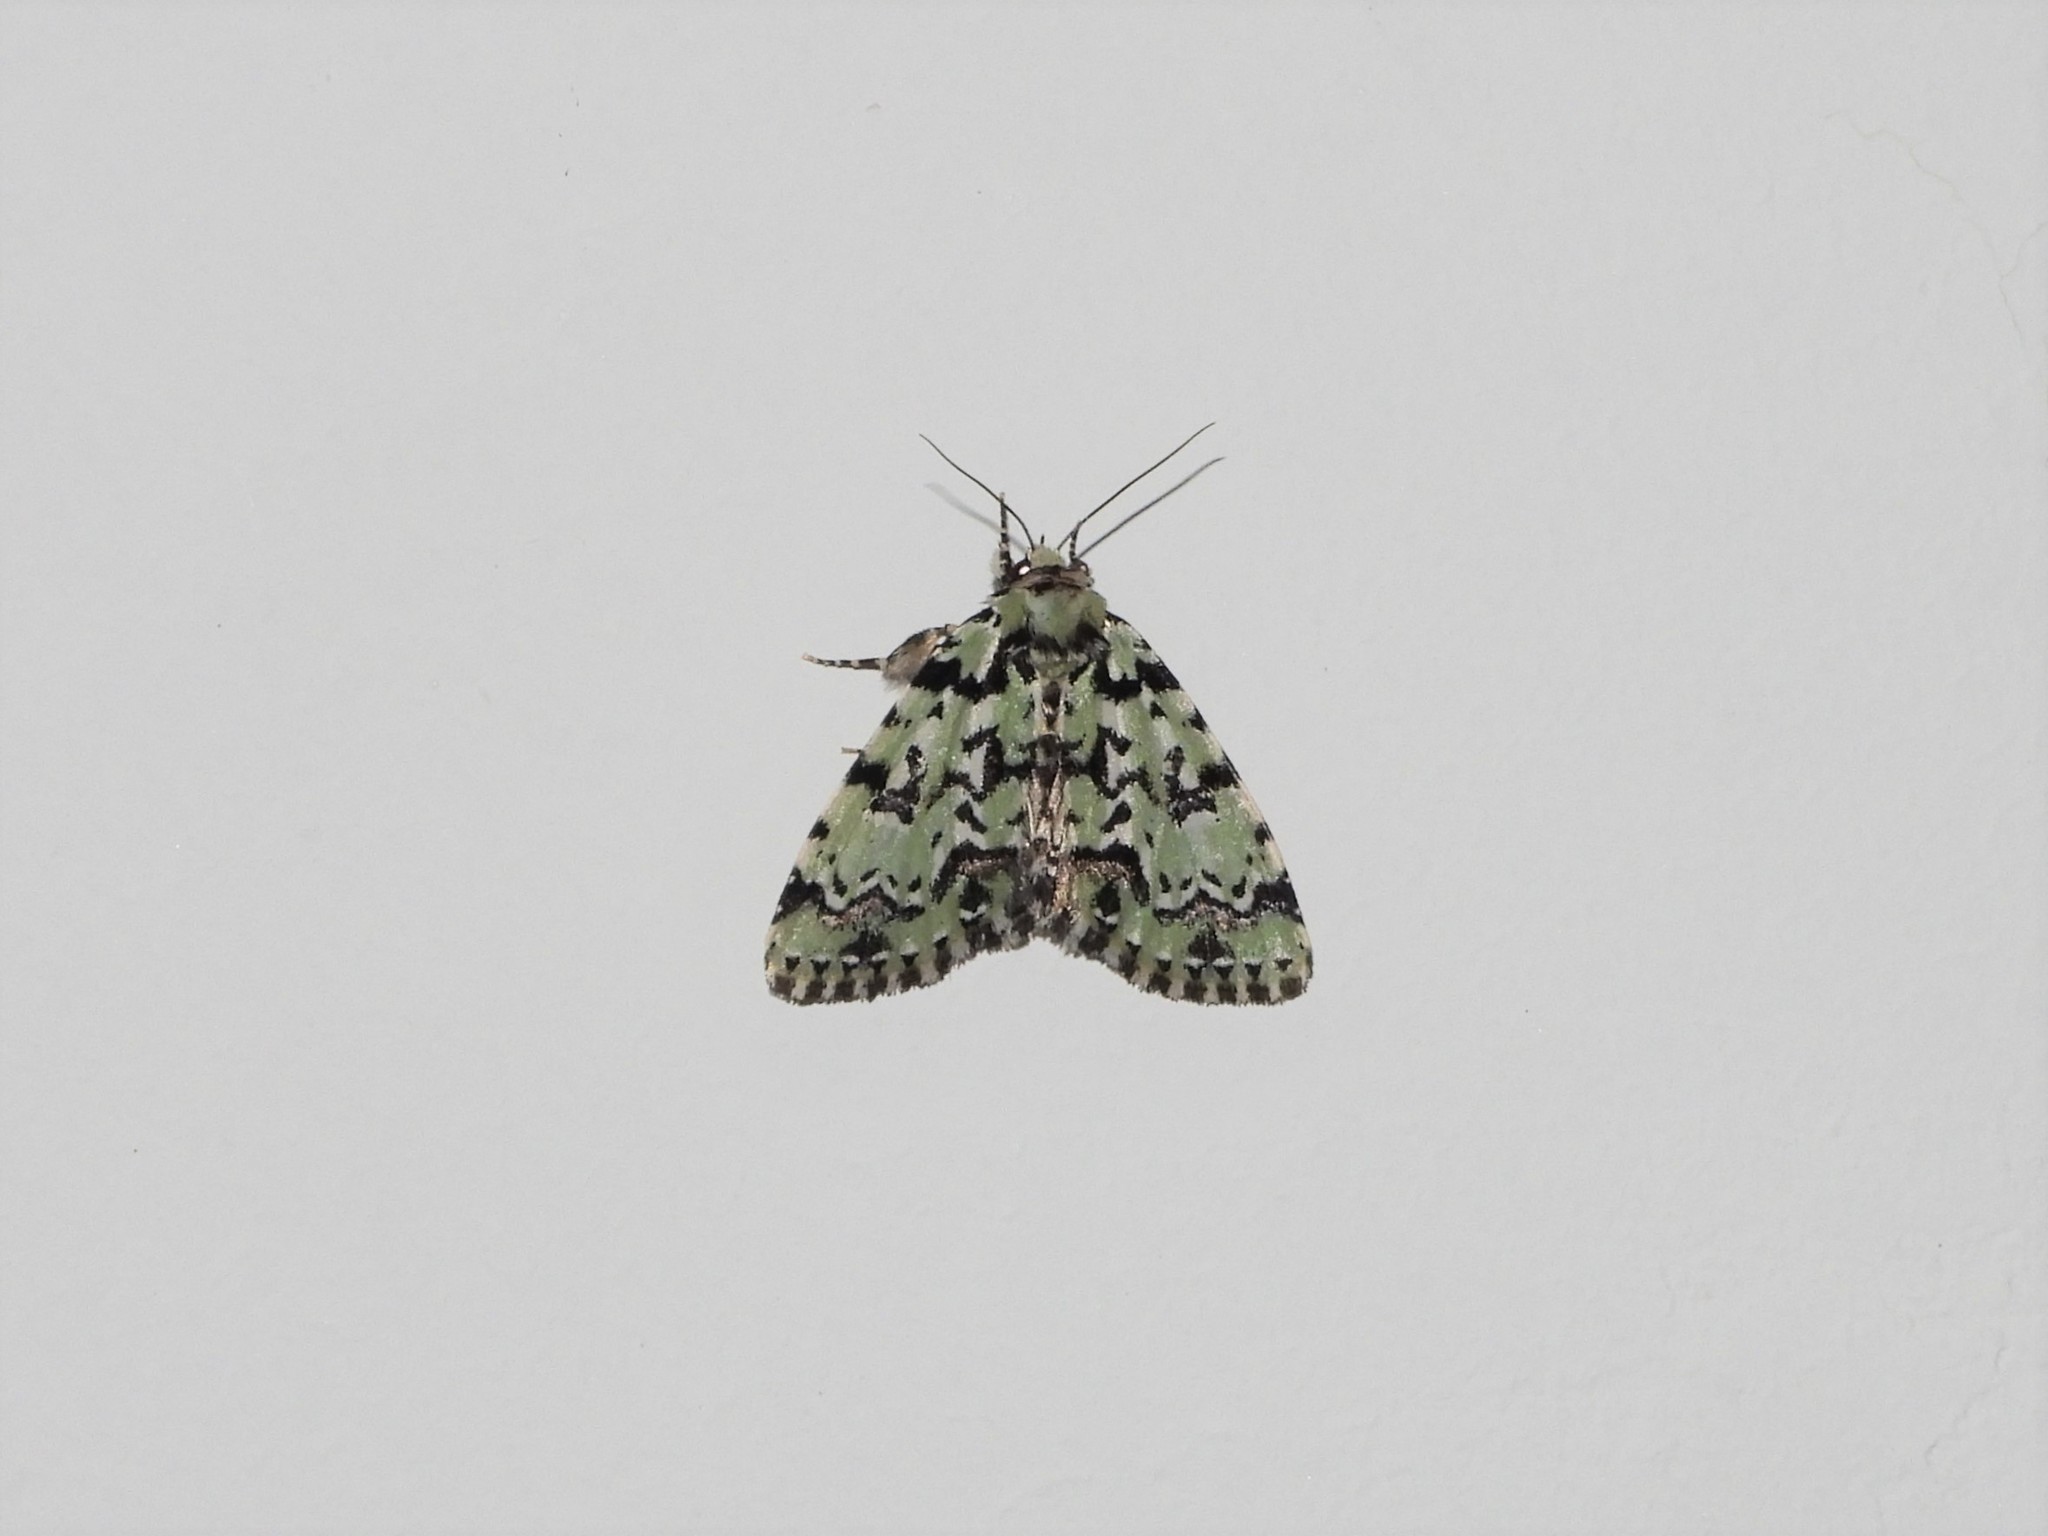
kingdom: Animalia
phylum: Arthropoda
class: Insecta
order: Lepidoptera
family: Noctuidae
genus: Moma
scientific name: Moma alpium
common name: Scarce merveille du jour
